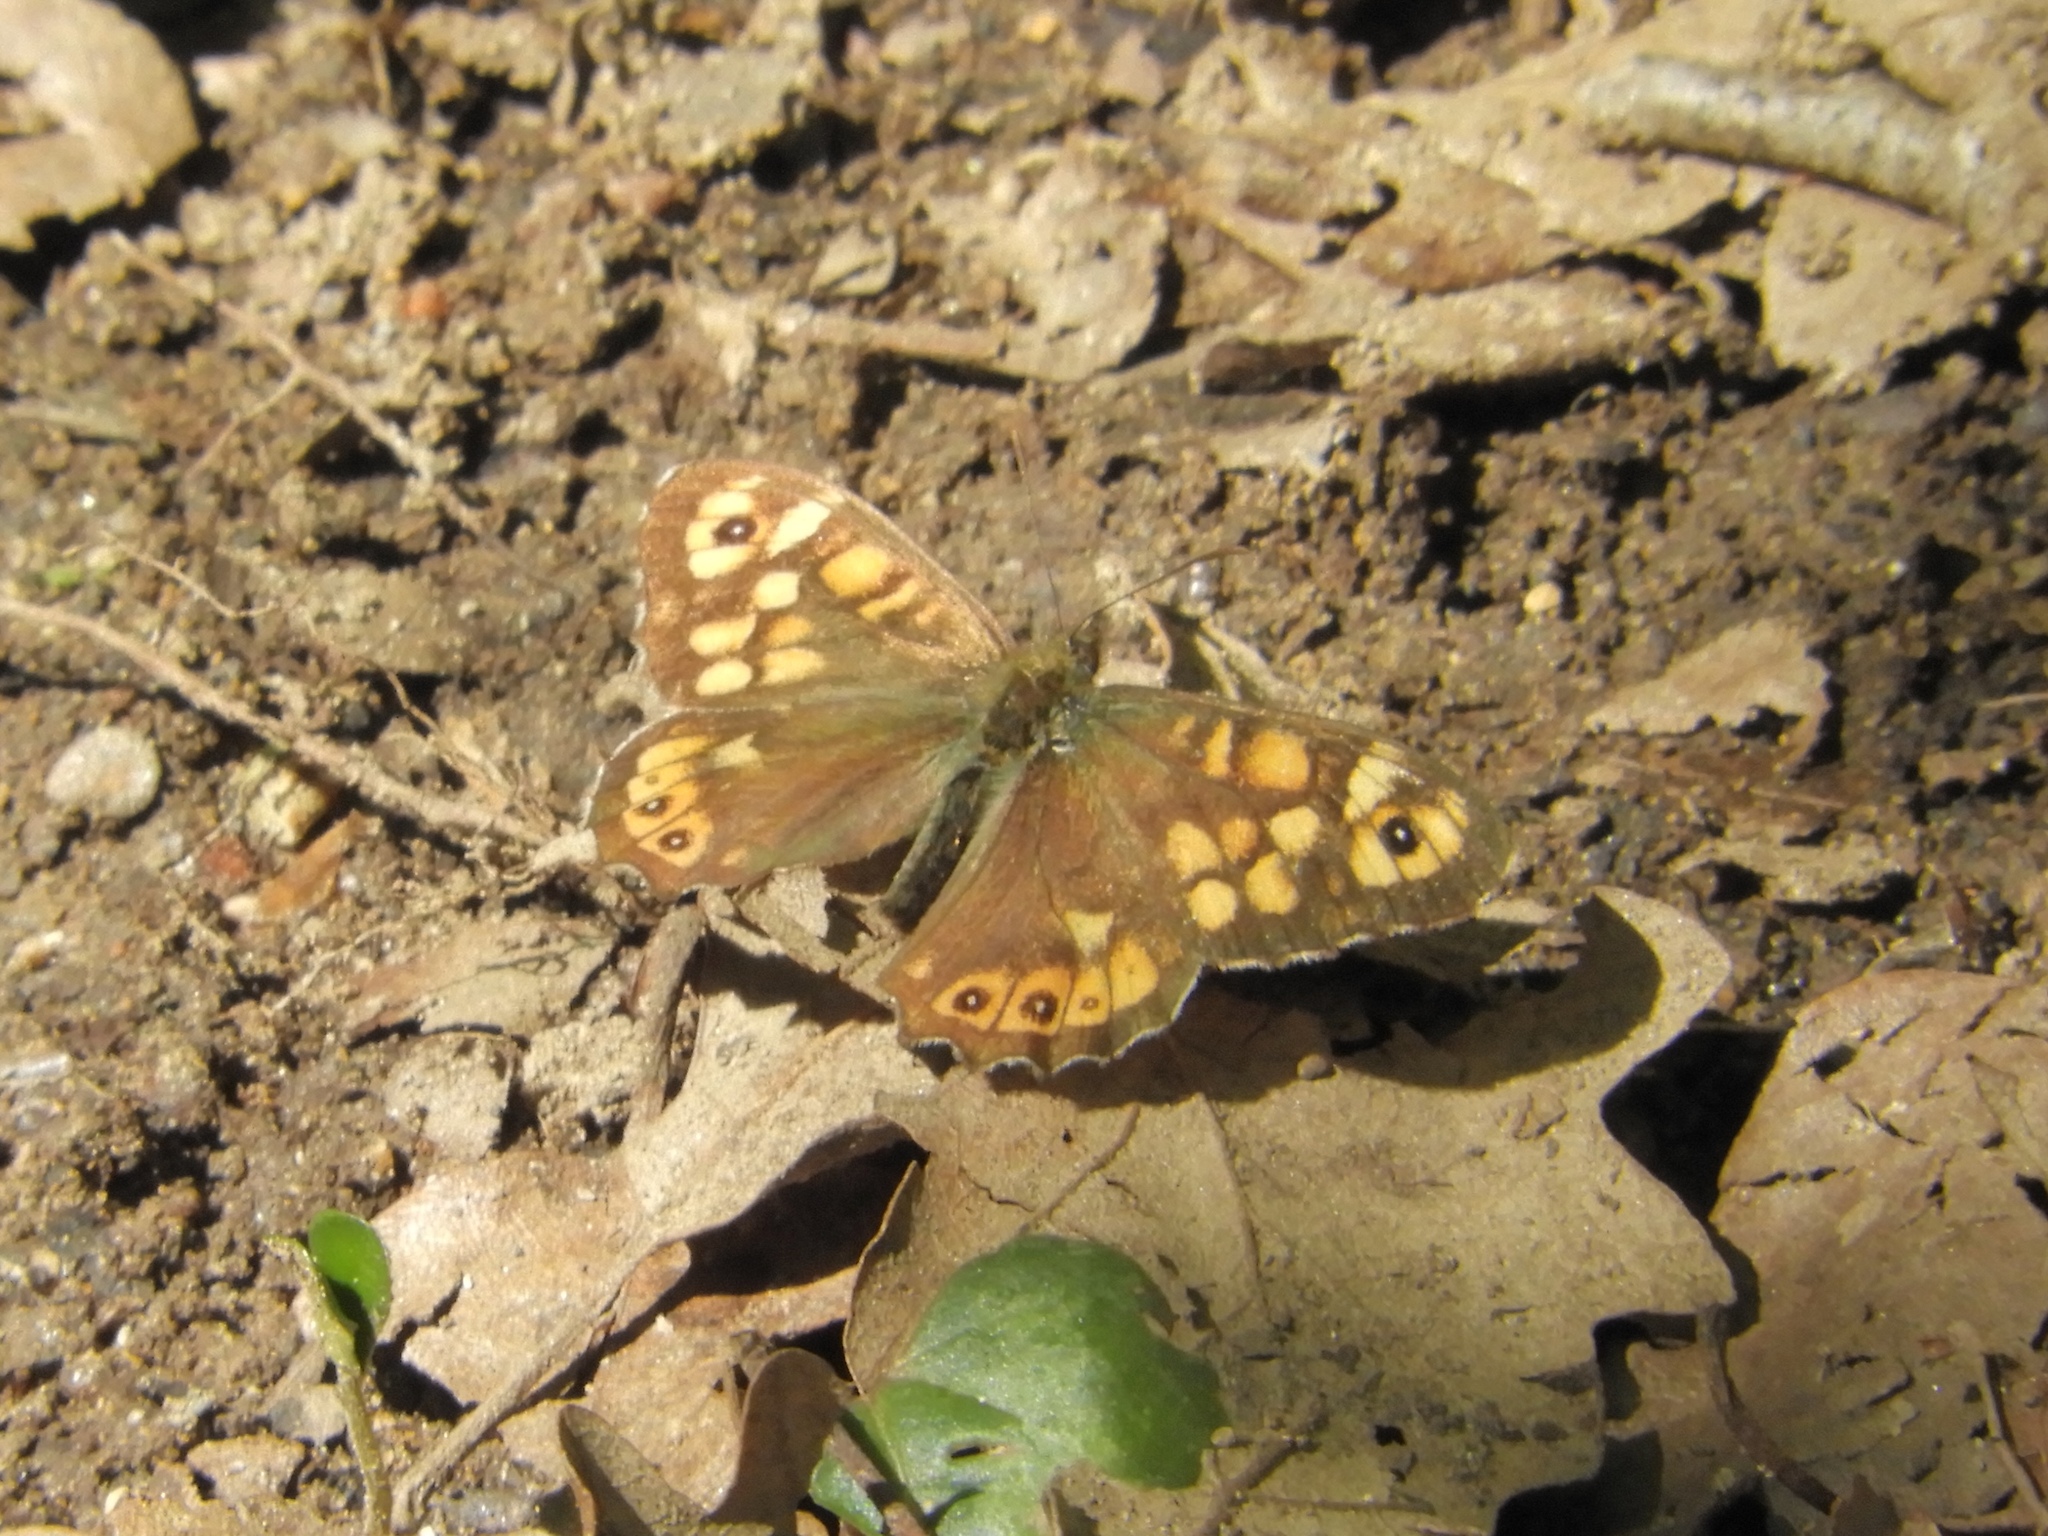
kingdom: Animalia
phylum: Arthropoda
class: Insecta
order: Lepidoptera
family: Nymphalidae
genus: Pararge
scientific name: Pararge aegeria
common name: Speckled wood
